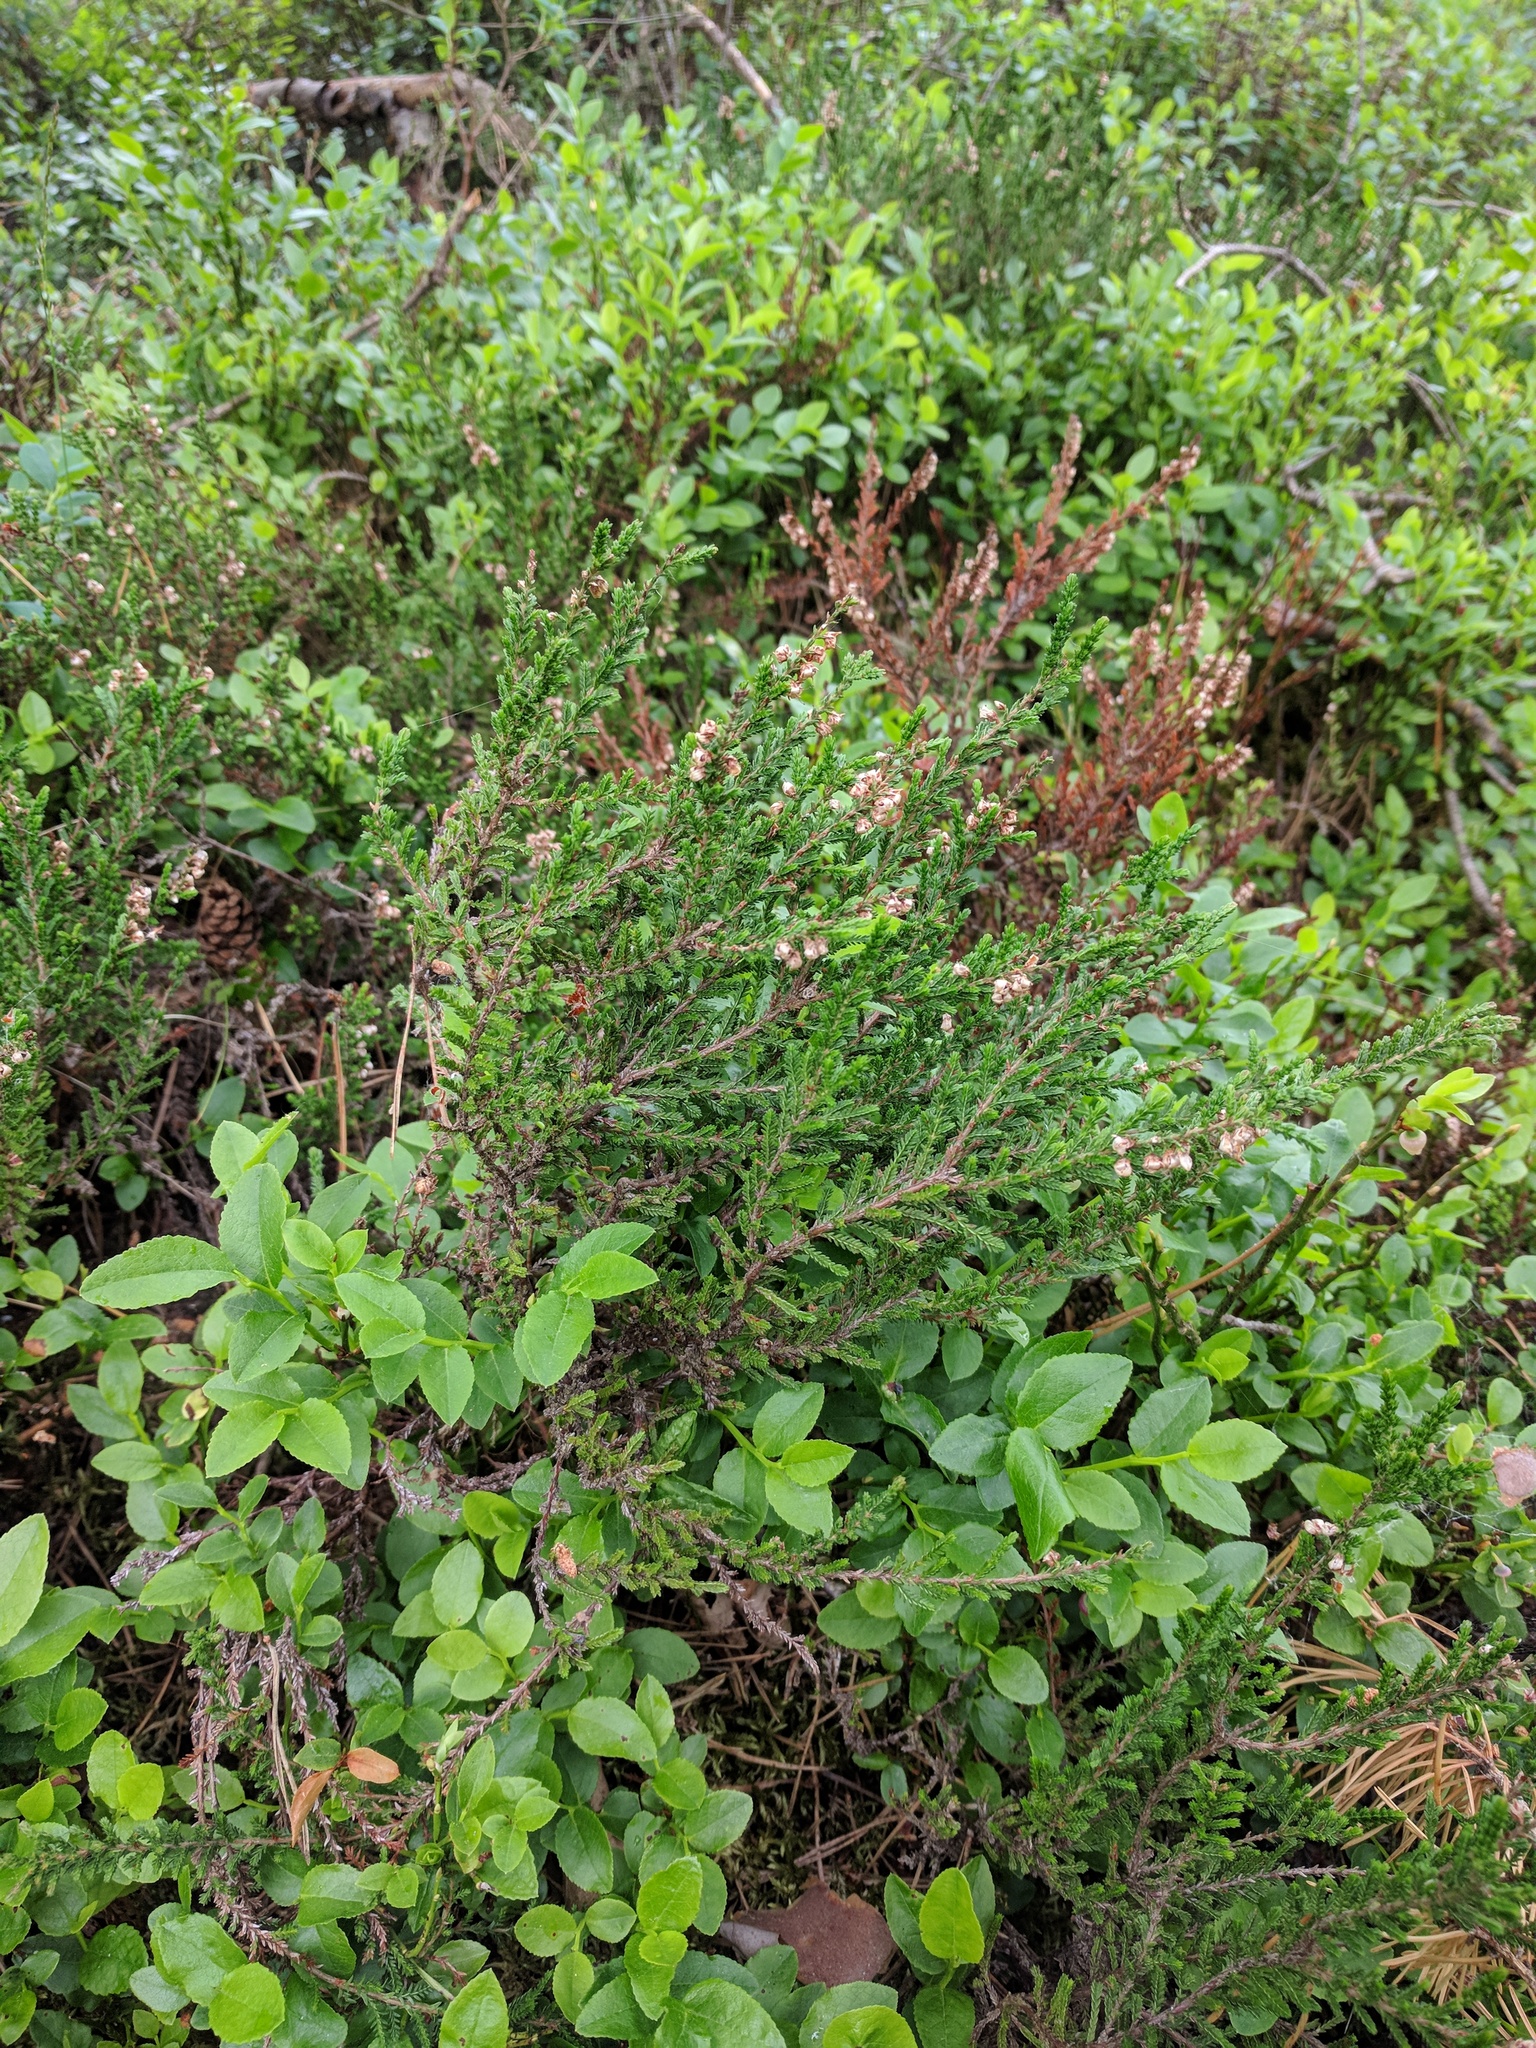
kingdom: Plantae
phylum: Tracheophyta
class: Magnoliopsida
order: Ericales
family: Ericaceae
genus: Calluna
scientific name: Calluna vulgaris
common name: Heather
